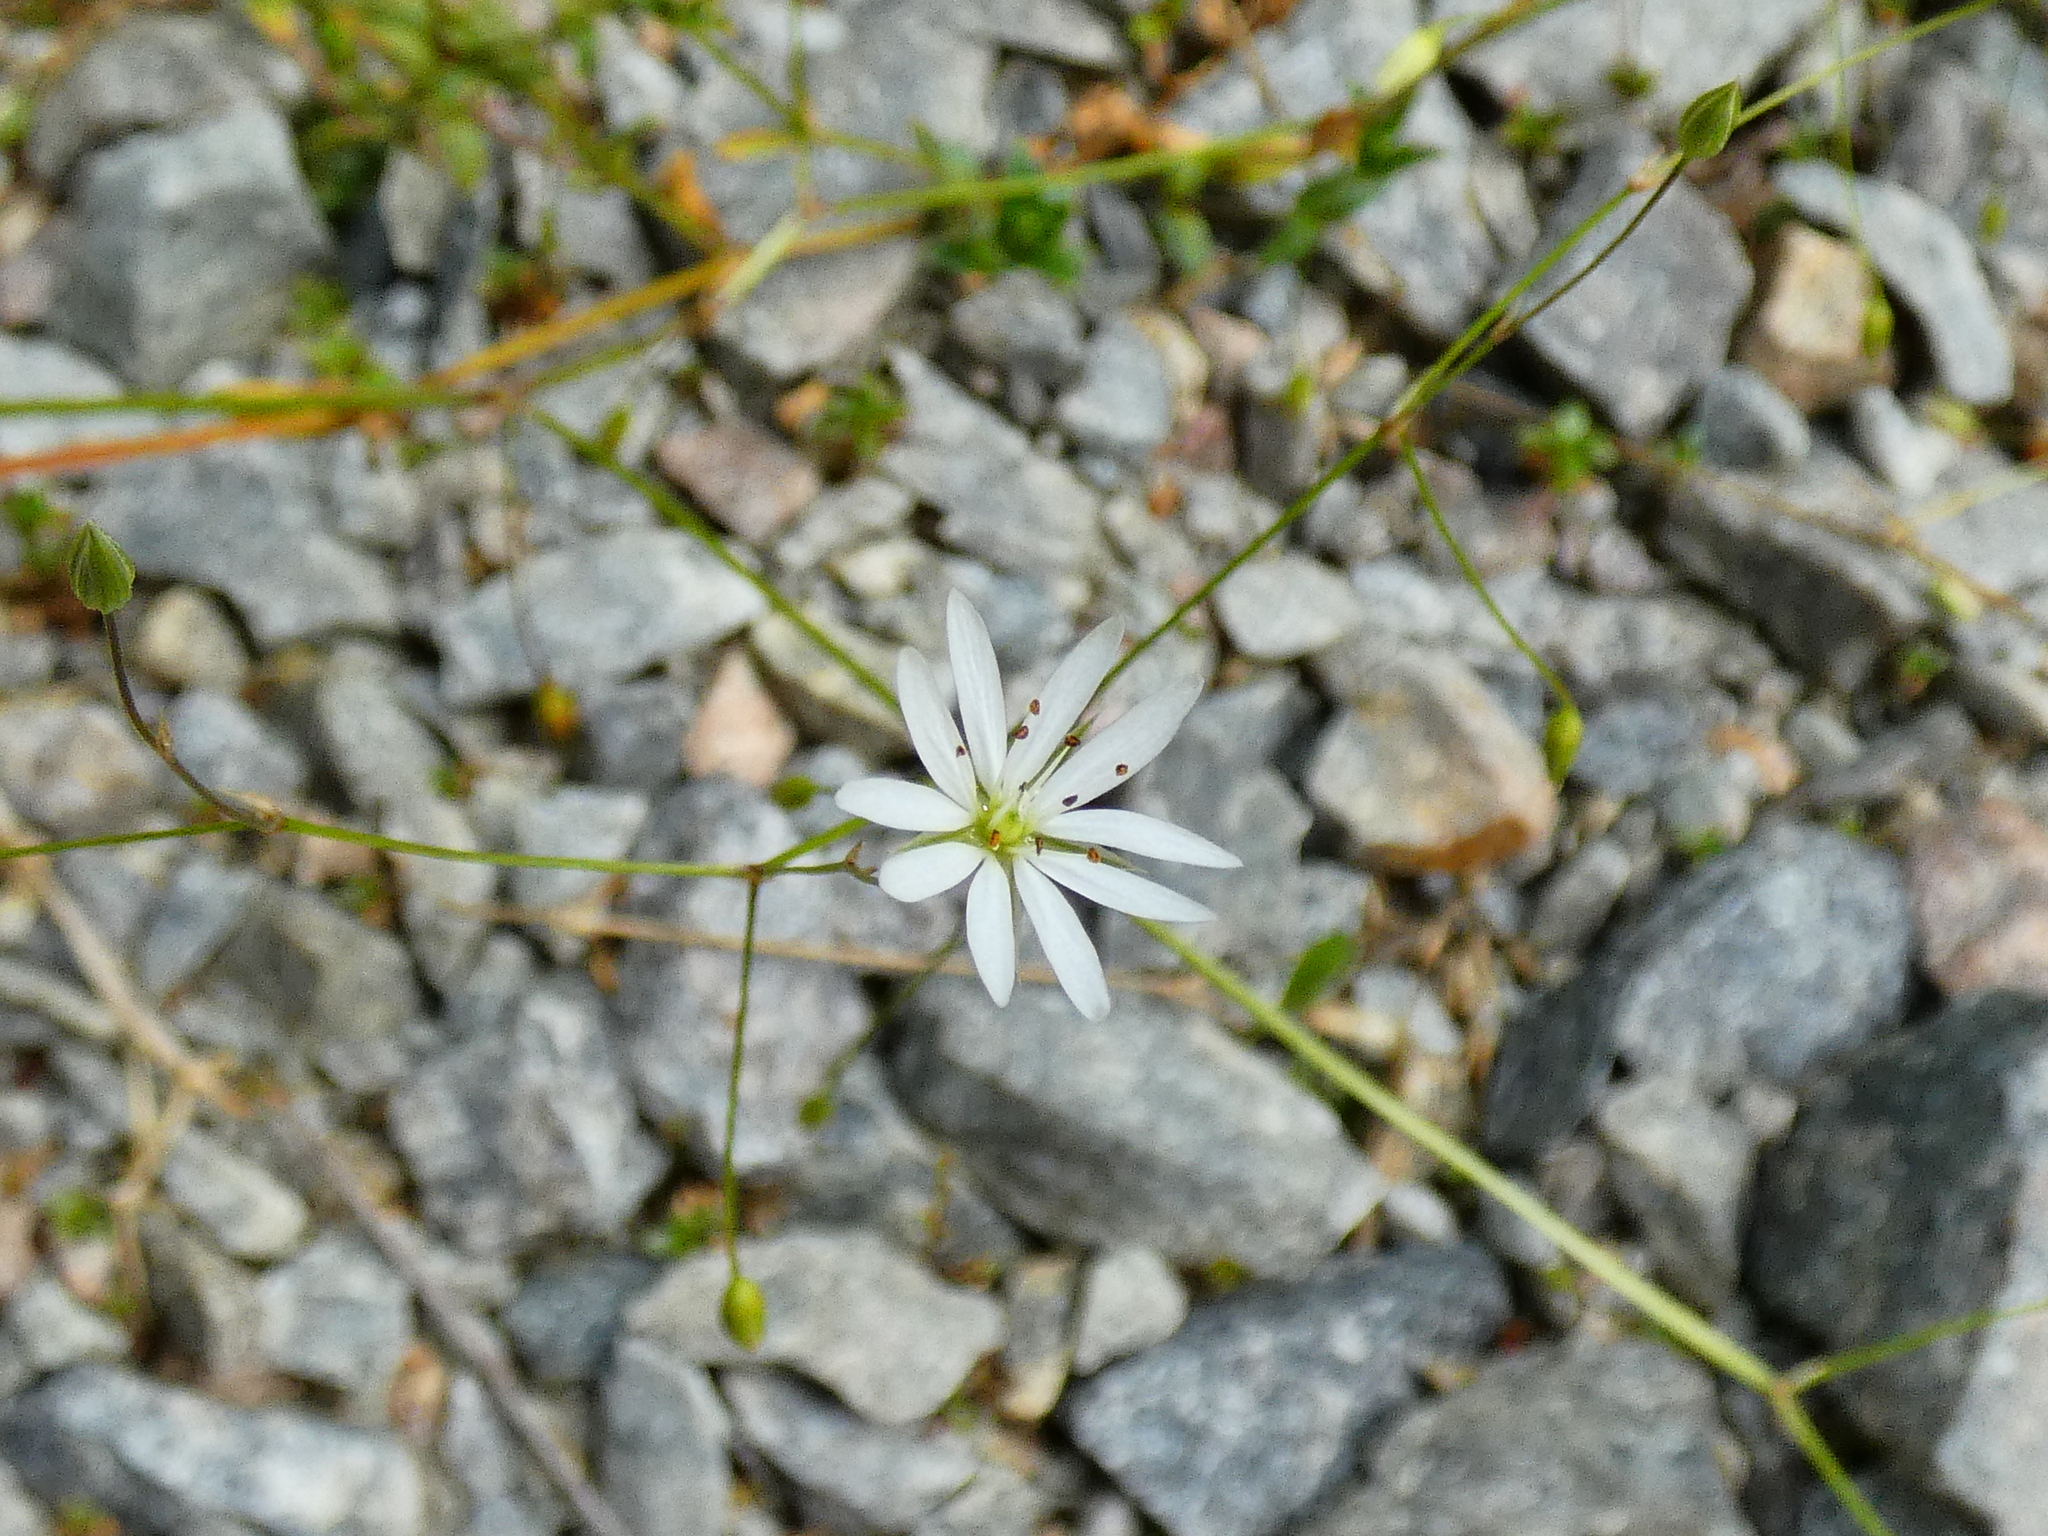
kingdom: Plantae
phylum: Tracheophyta
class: Magnoliopsida
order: Caryophyllales
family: Caryophyllaceae
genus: Stellaria
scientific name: Stellaria graminea
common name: Grass-like starwort
